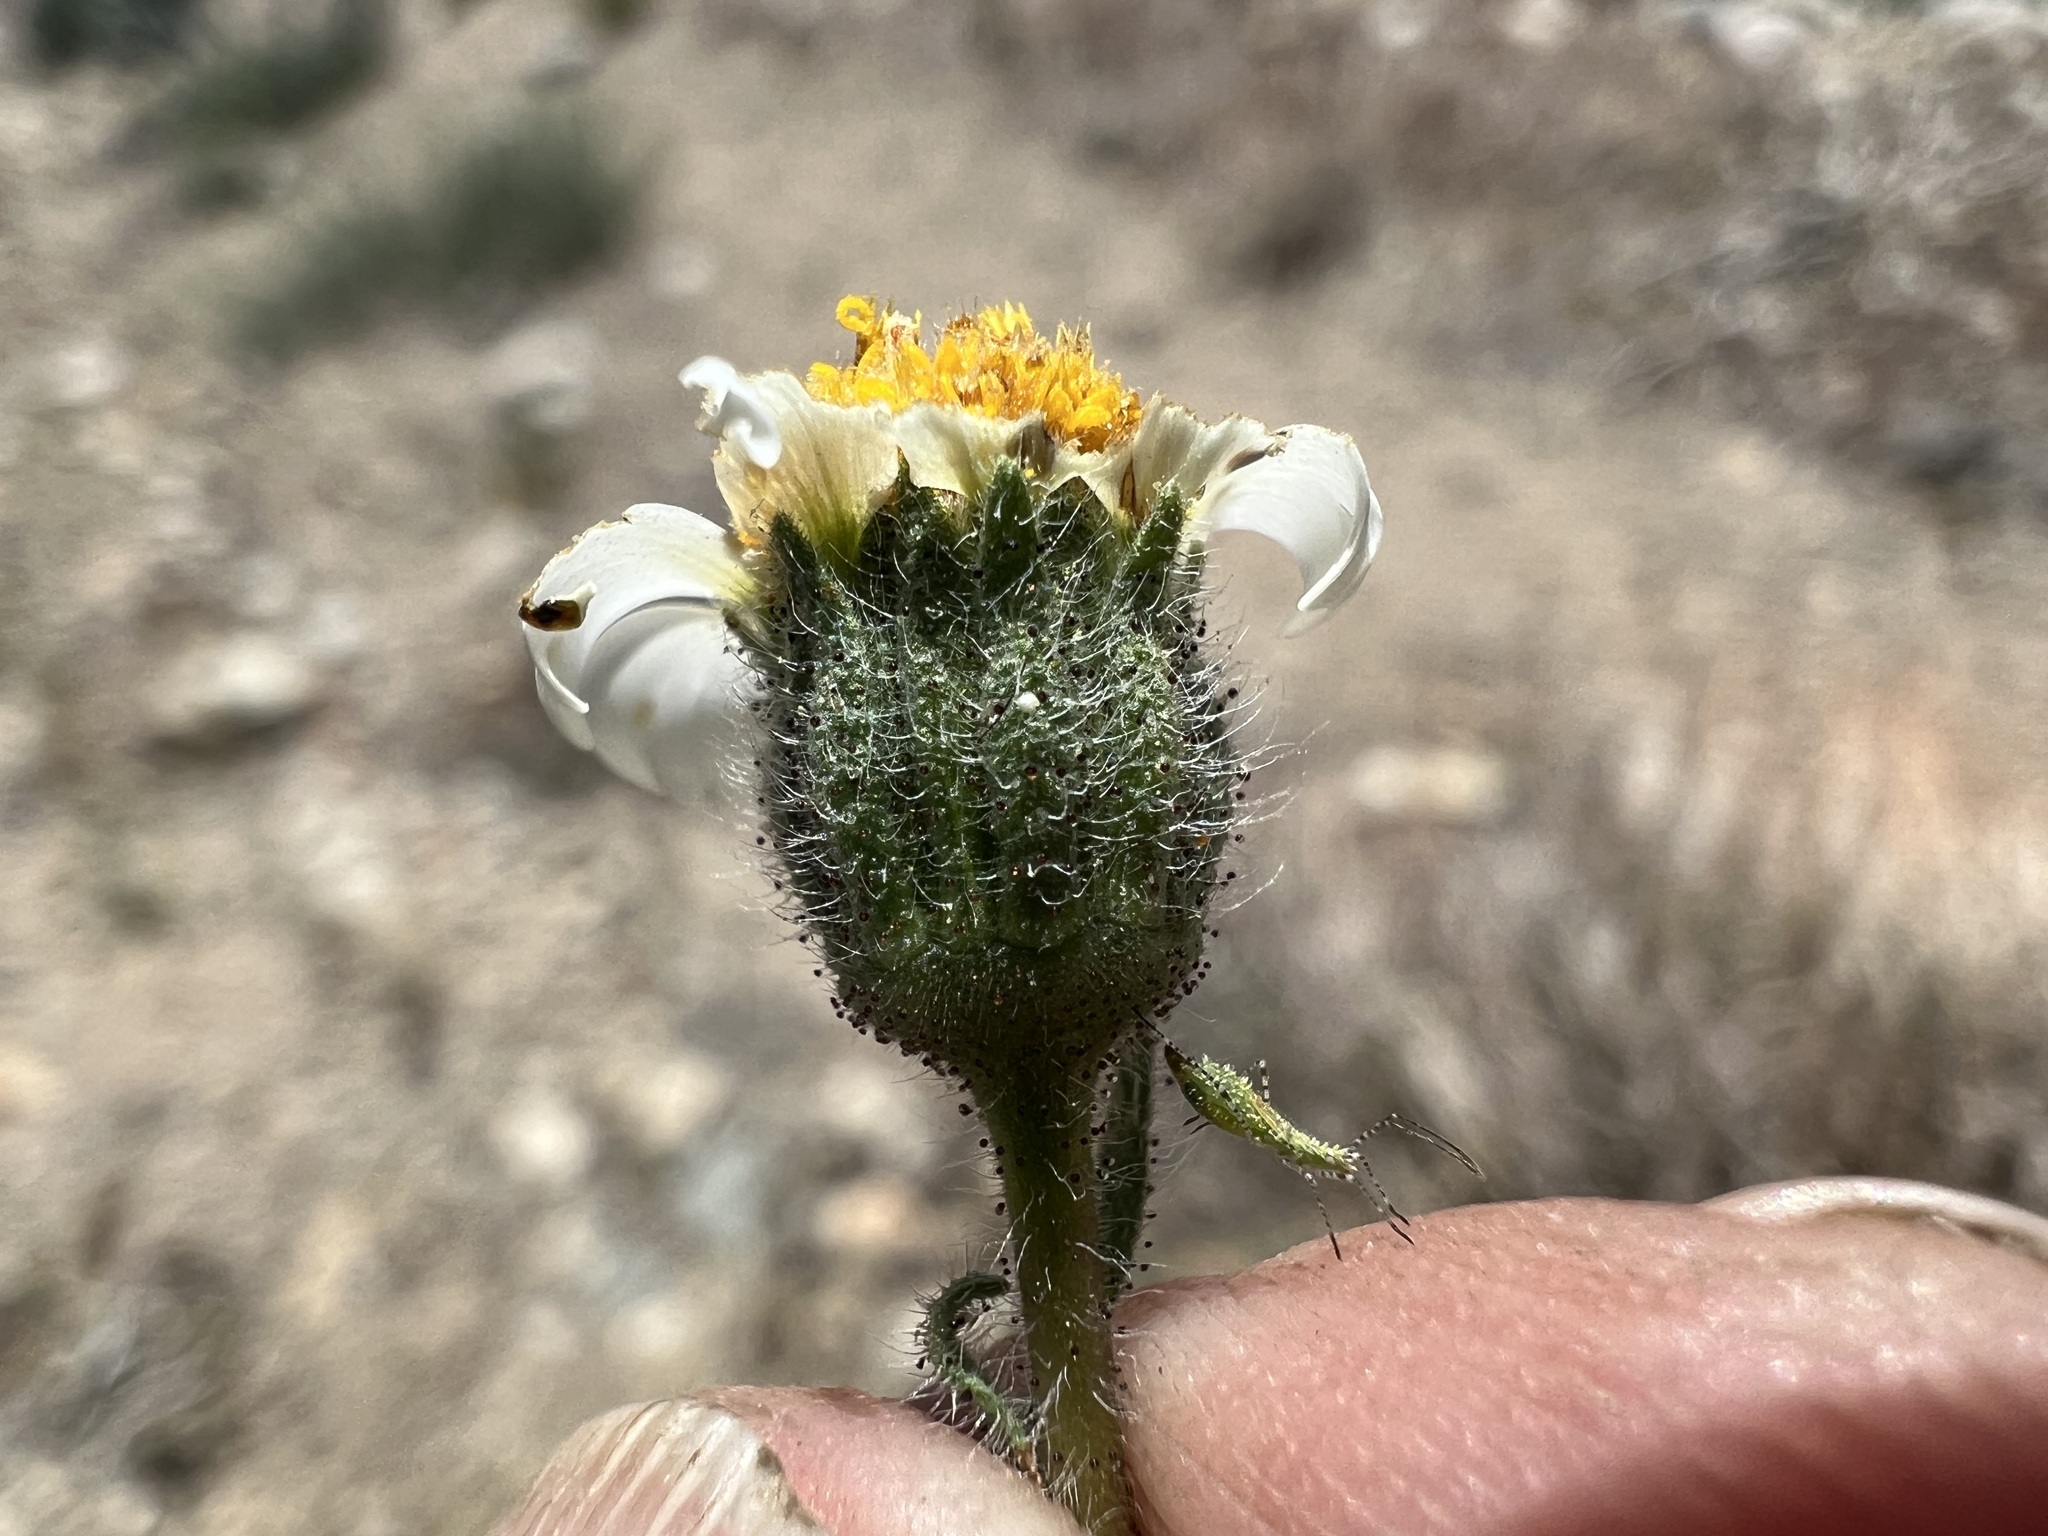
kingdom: Plantae
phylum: Tracheophyta
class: Magnoliopsida
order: Asterales
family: Asteraceae
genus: Layia
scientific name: Layia glandulosa
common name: White layia
